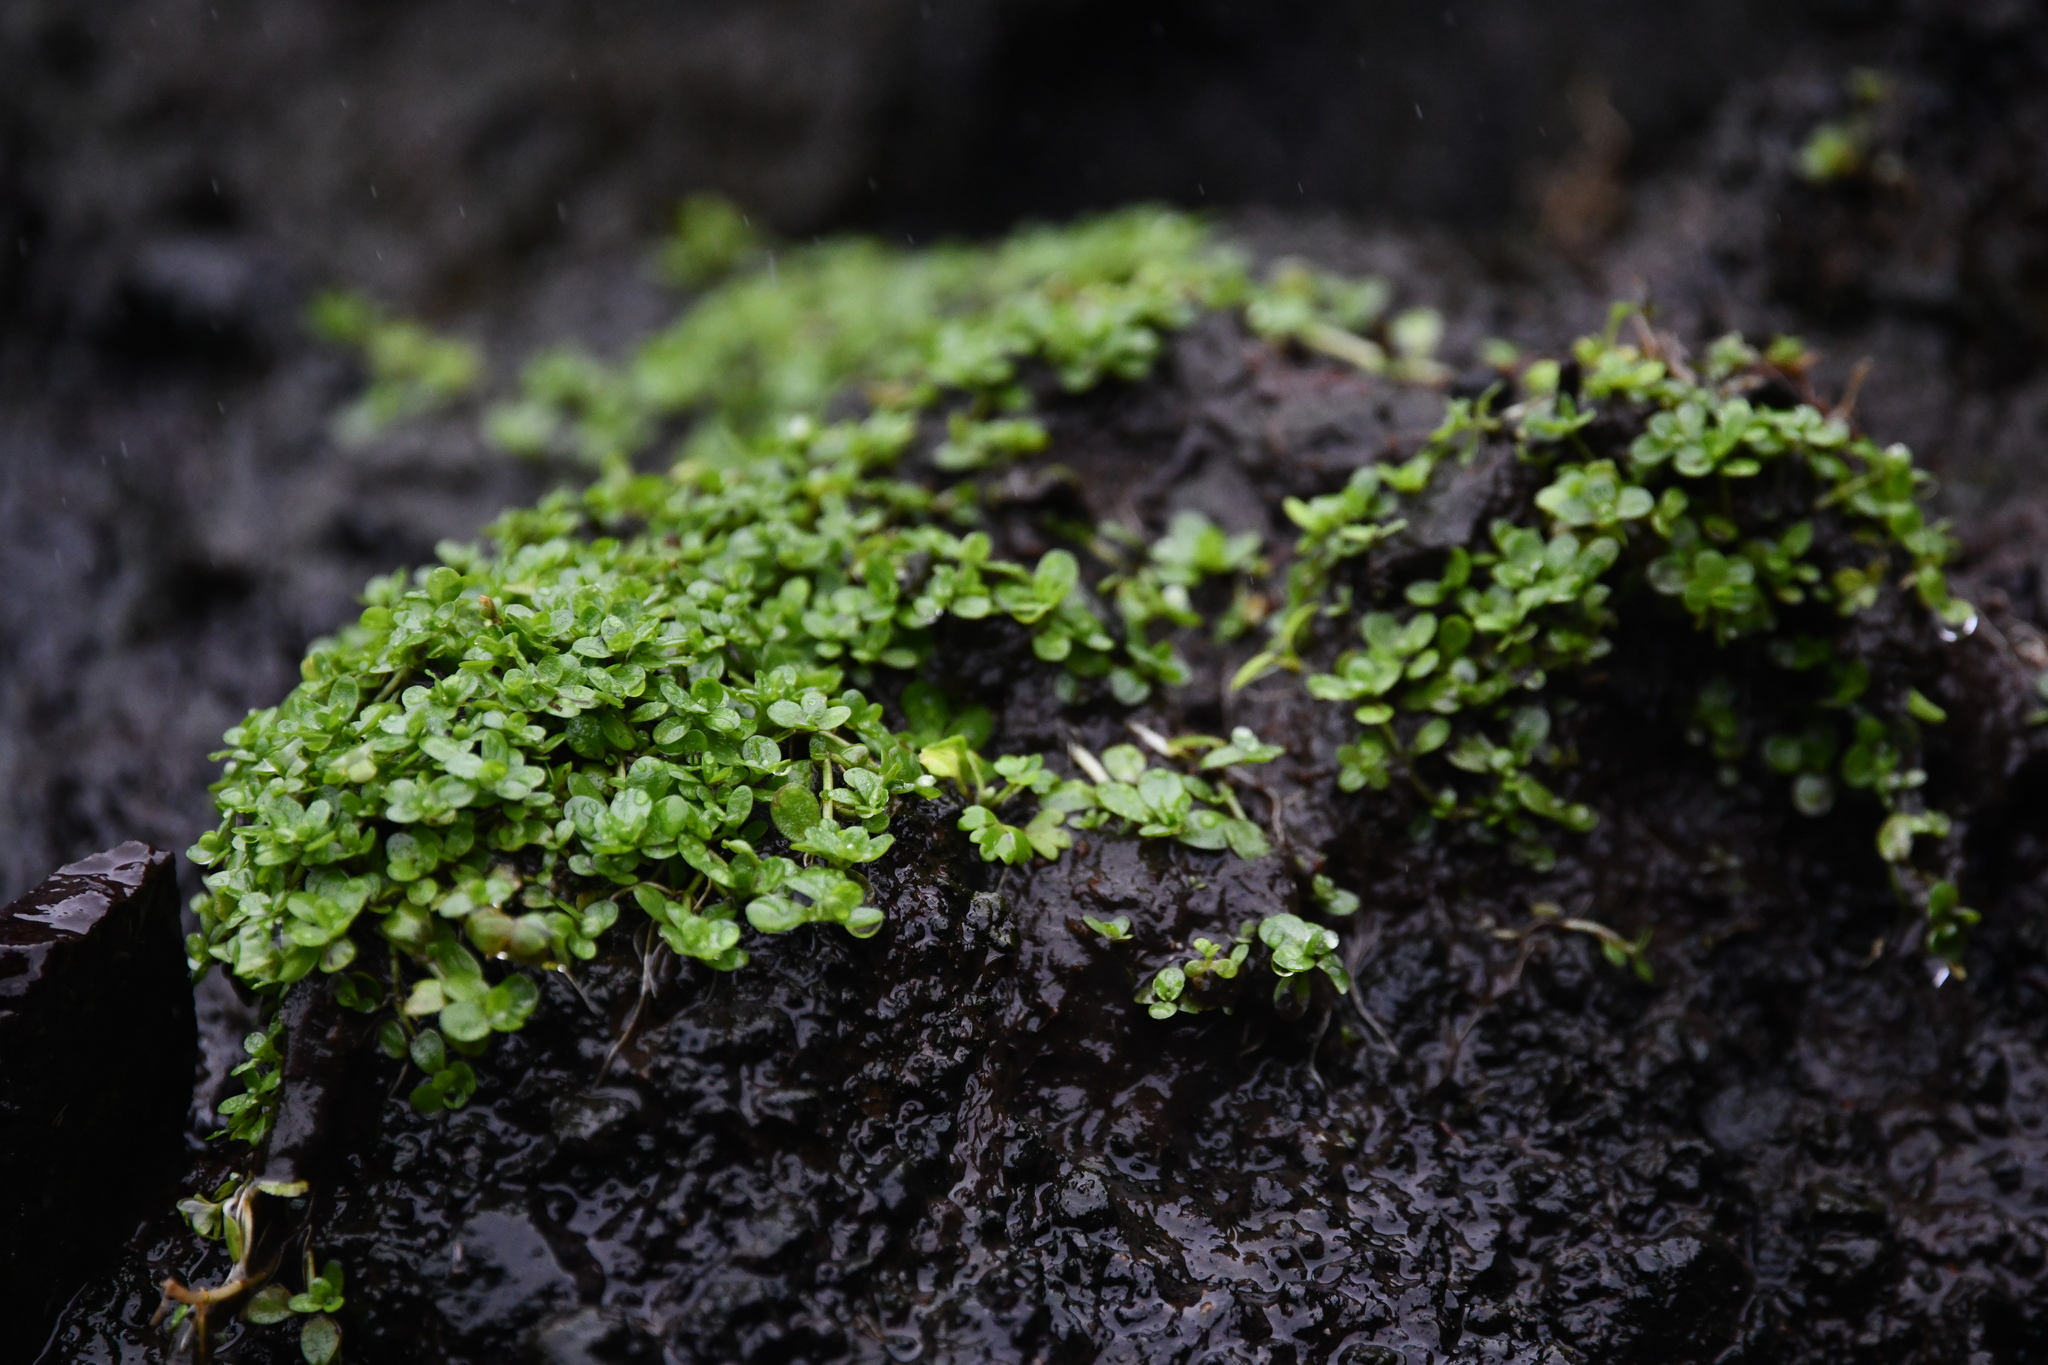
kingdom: Plantae
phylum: Tracheophyta
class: Magnoliopsida
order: Lamiales
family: Plantaginaceae
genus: Callitriche
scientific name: Callitriche antarctica
